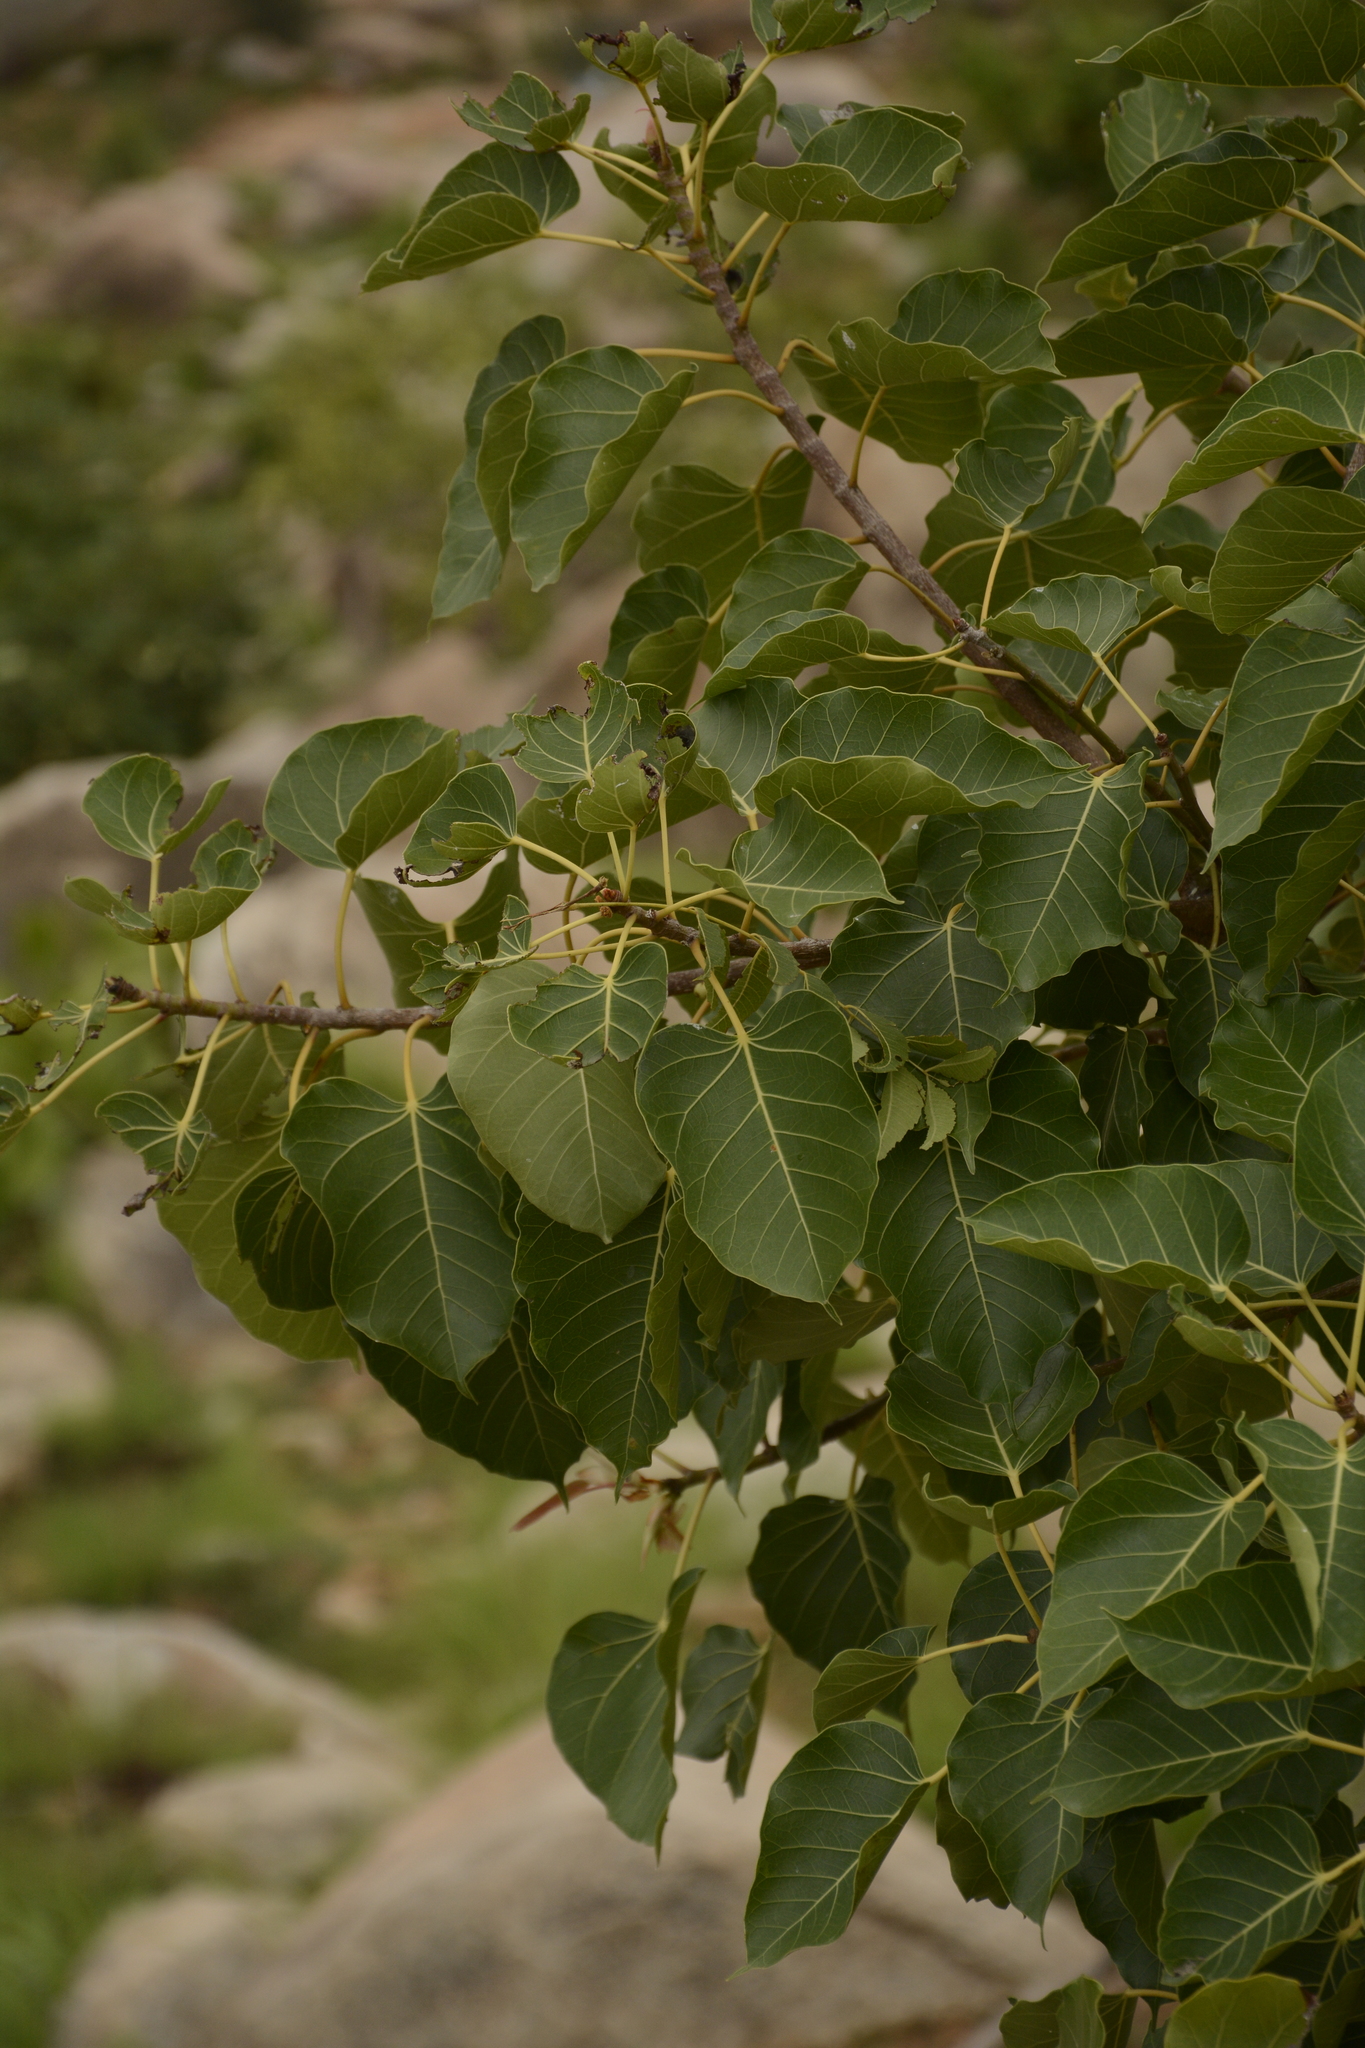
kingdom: Plantae
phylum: Tracheophyta
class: Magnoliopsida
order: Rosales
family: Moraceae
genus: Ficus
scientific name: Ficus arnottiana
